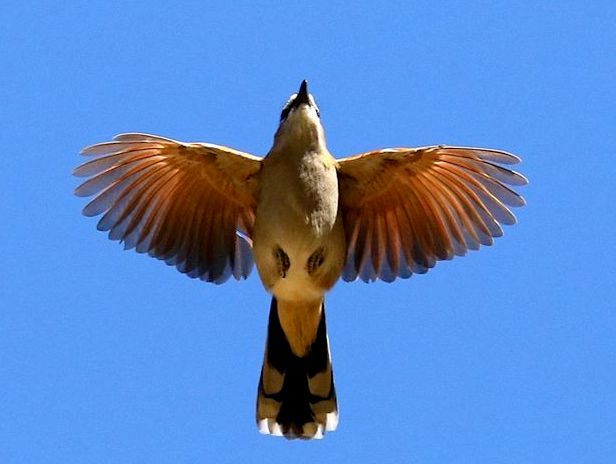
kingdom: Animalia
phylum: Chordata
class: Aves
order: Passeriformes
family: Malaconotidae
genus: Tchagra
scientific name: Tchagra senegalus
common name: Black-crowned tchagra
